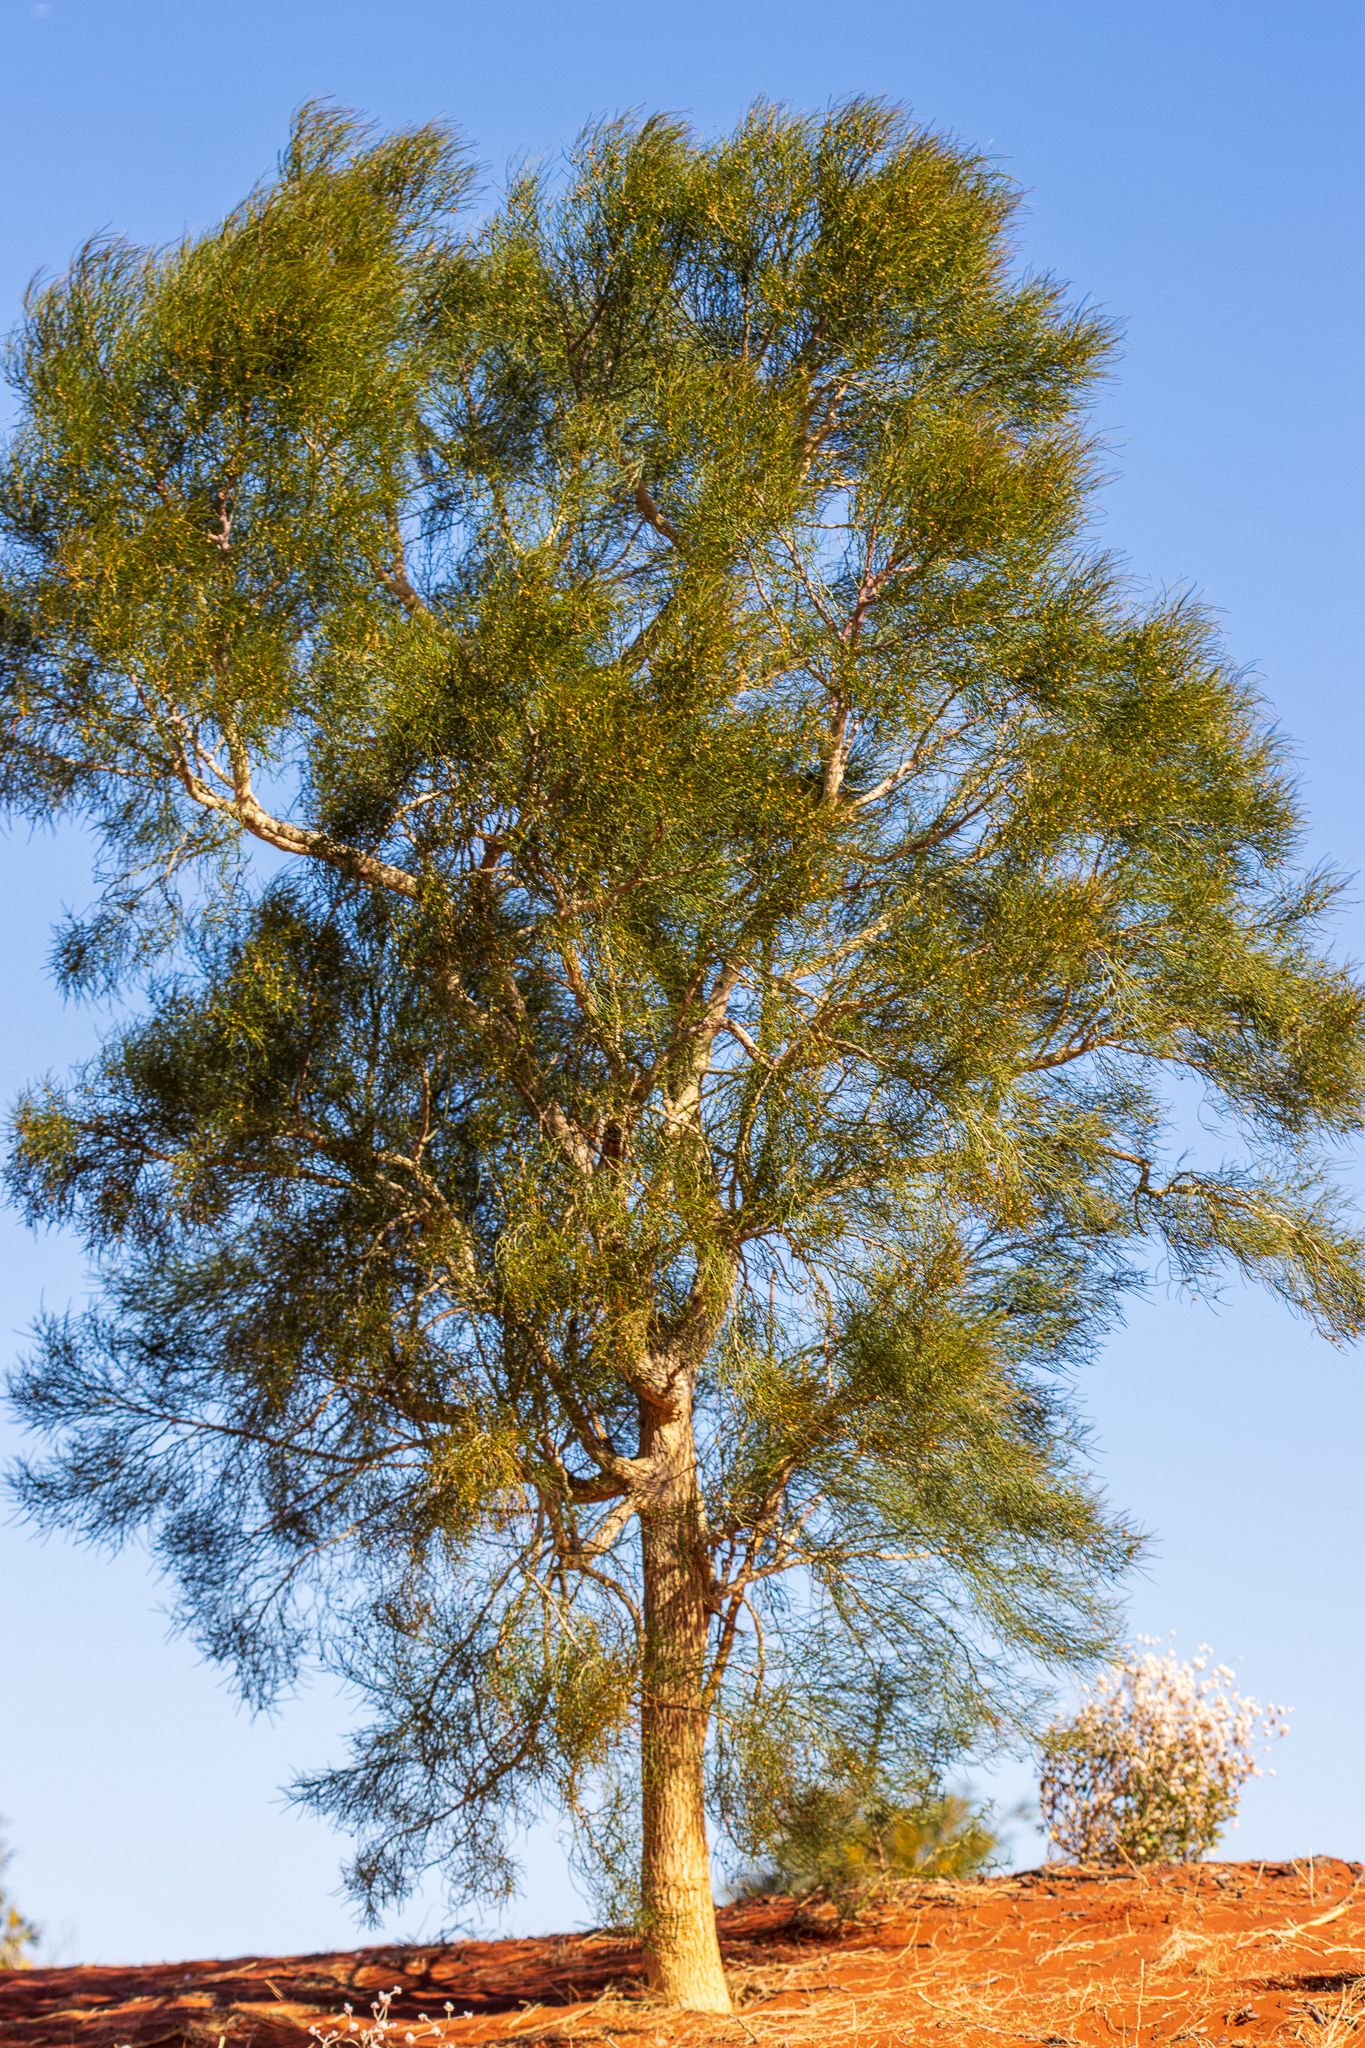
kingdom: Plantae
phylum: Tracheophyta
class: Magnoliopsida
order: Brassicales
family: Gyrostemonaceae
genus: Gyrostemon
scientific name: Gyrostemon ramulosus
